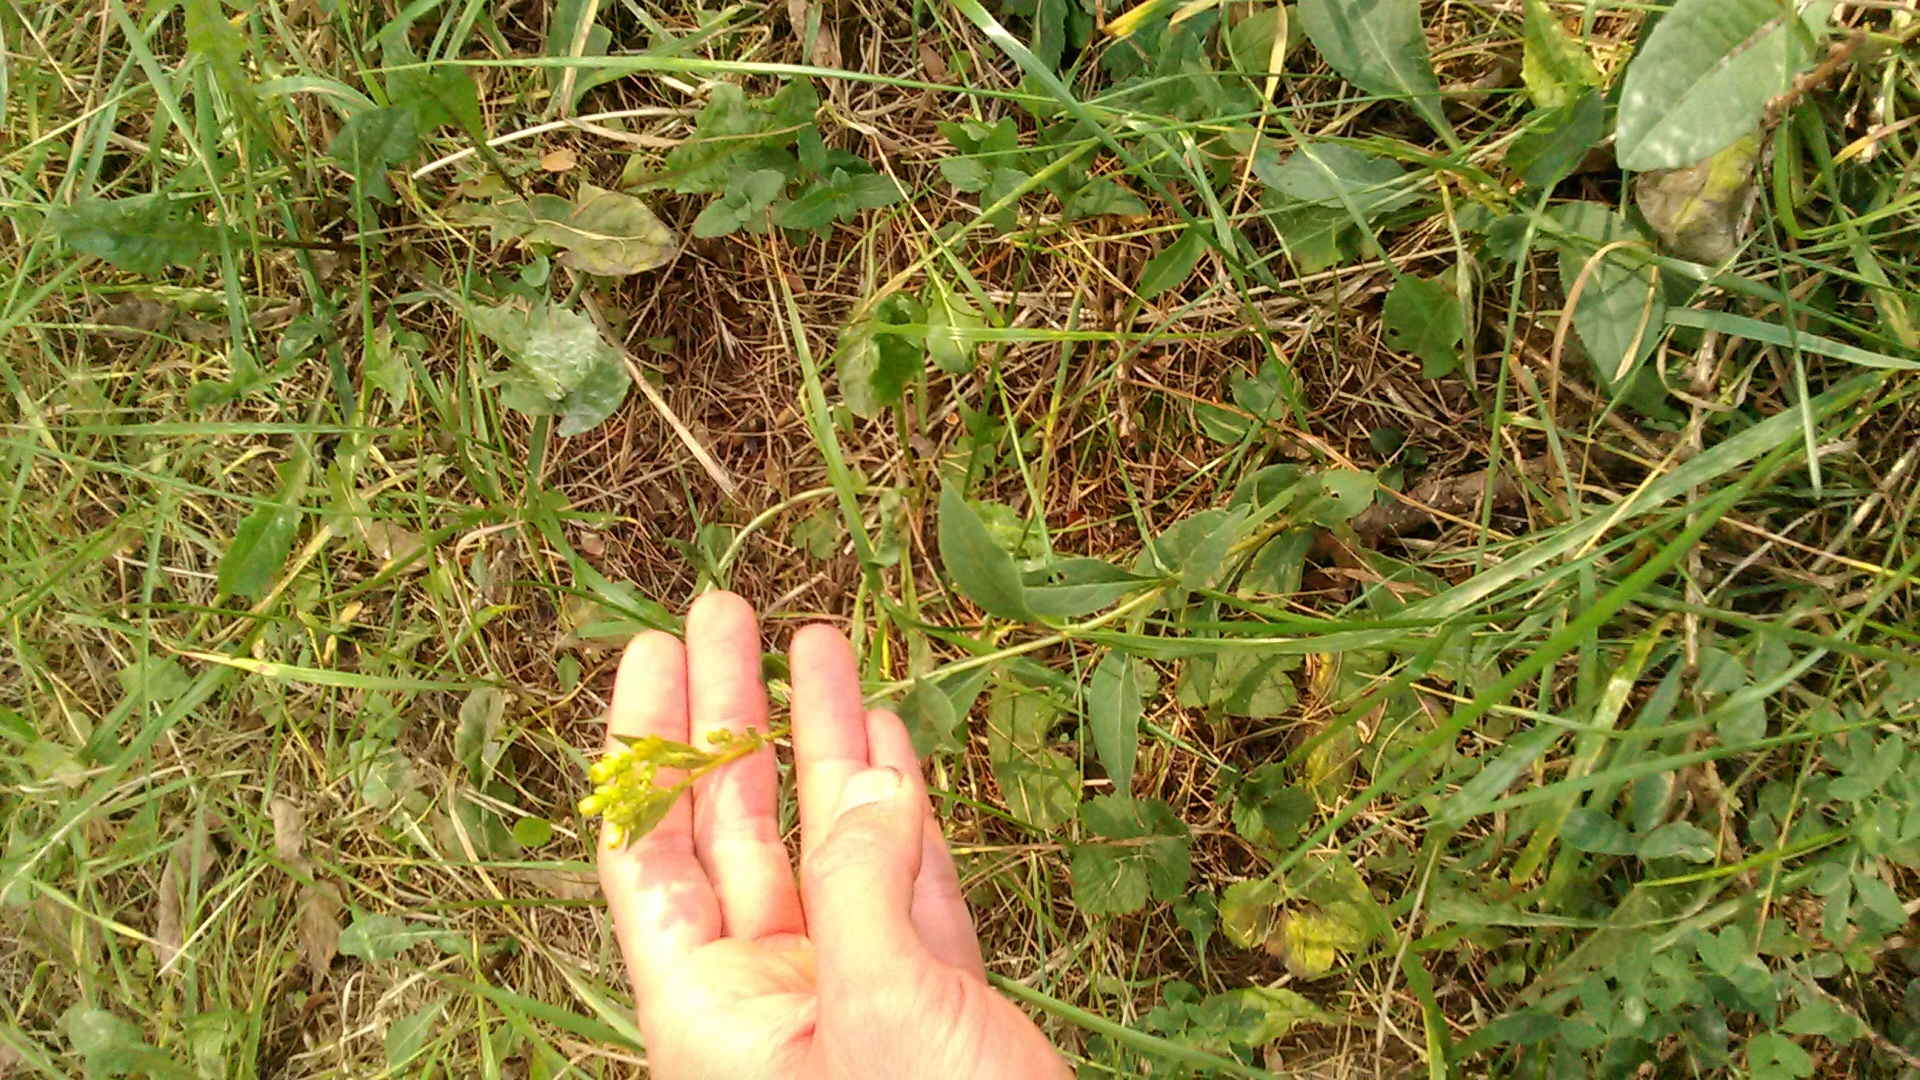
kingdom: Plantae
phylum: Tracheophyta
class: Magnoliopsida
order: Asterales
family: Asteraceae
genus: Solidago
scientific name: Solidago virgaurea
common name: Goldenrod
